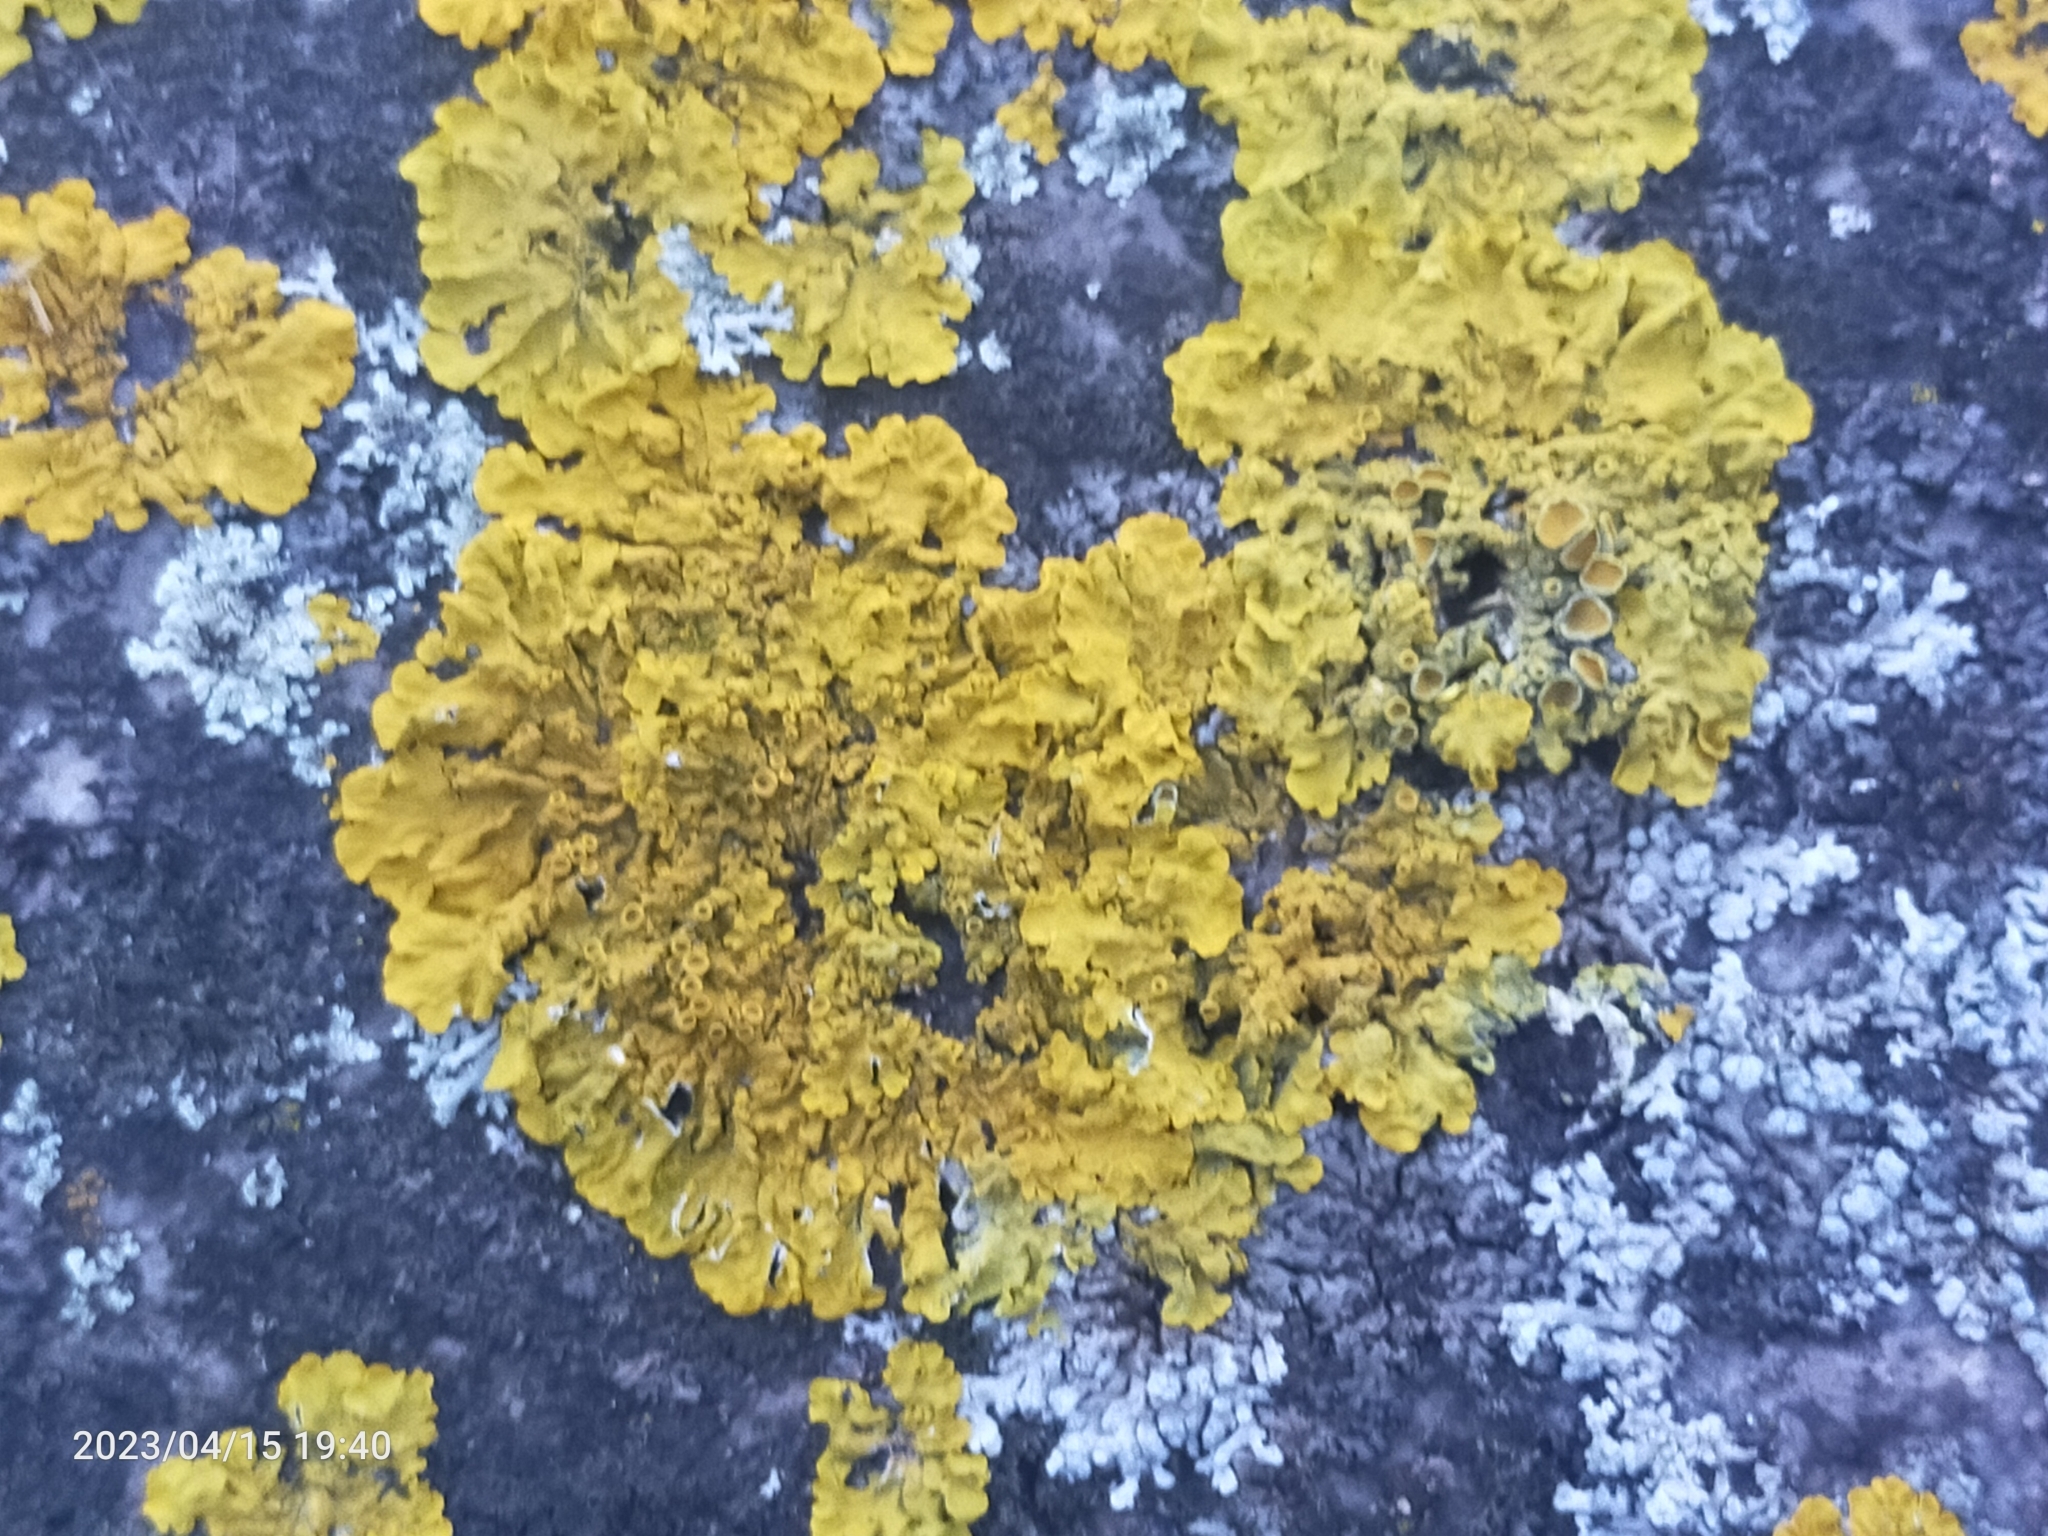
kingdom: Fungi
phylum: Ascomycota
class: Lecanoromycetes
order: Teloschistales
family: Teloschistaceae
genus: Xanthoria
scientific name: Xanthoria parietina
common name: Common orange lichen
